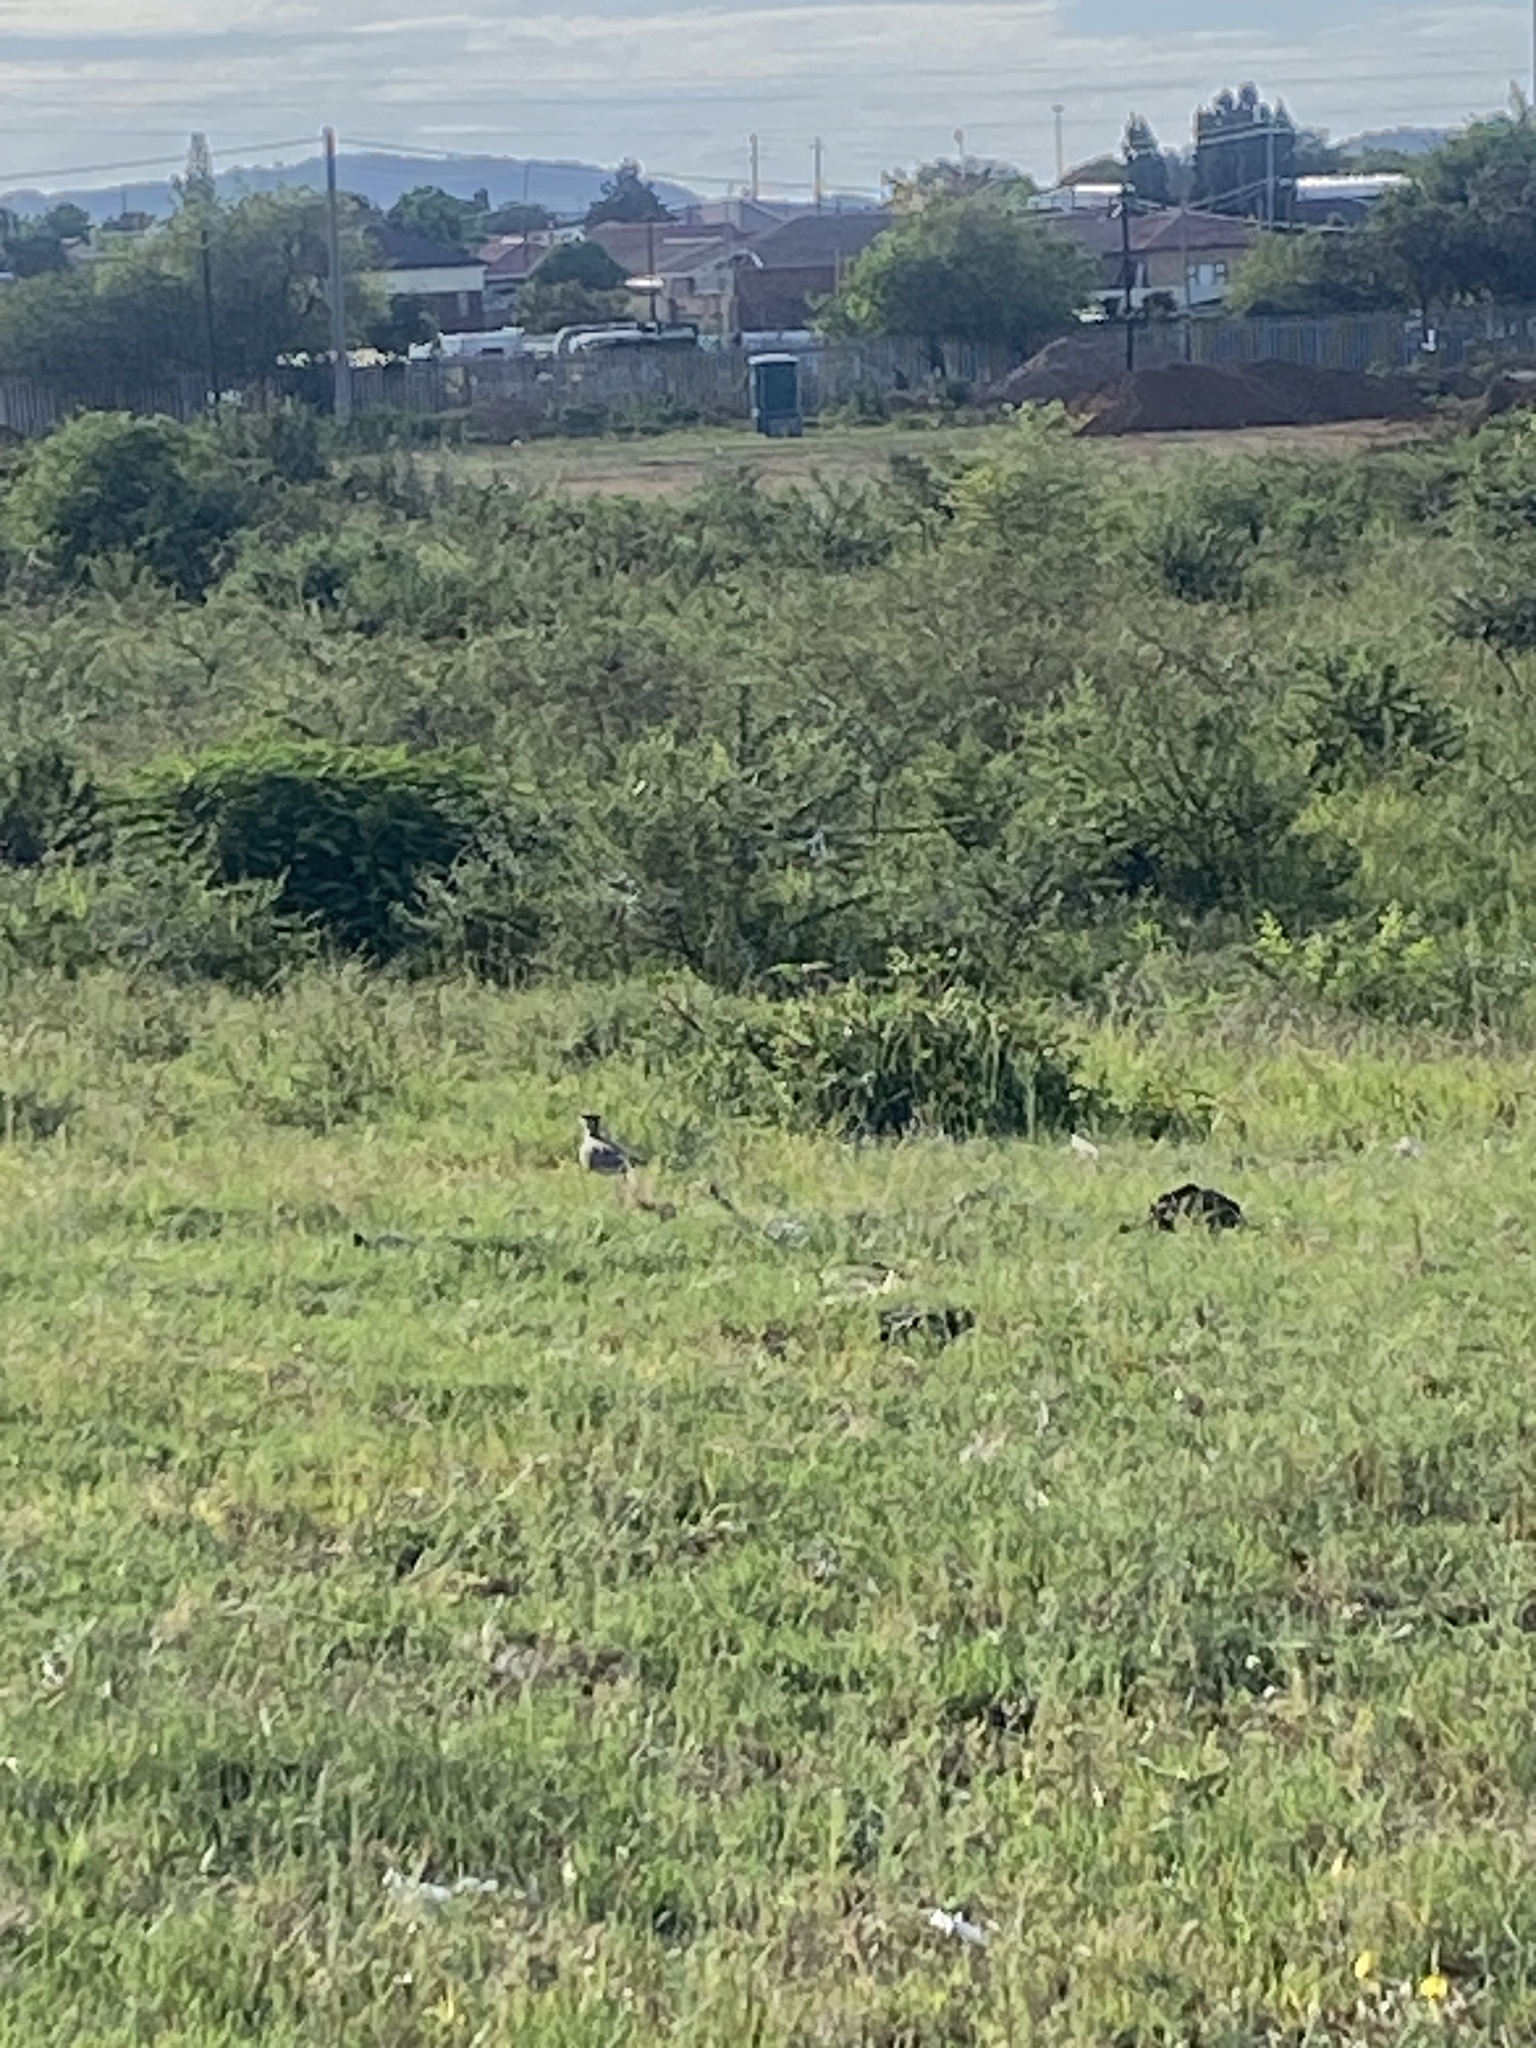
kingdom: Animalia
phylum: Chordata
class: Aves
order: Charadriiformes
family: Charadriidae
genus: Vanellus
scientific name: Vanellus coronatus
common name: Crowned lapwing
